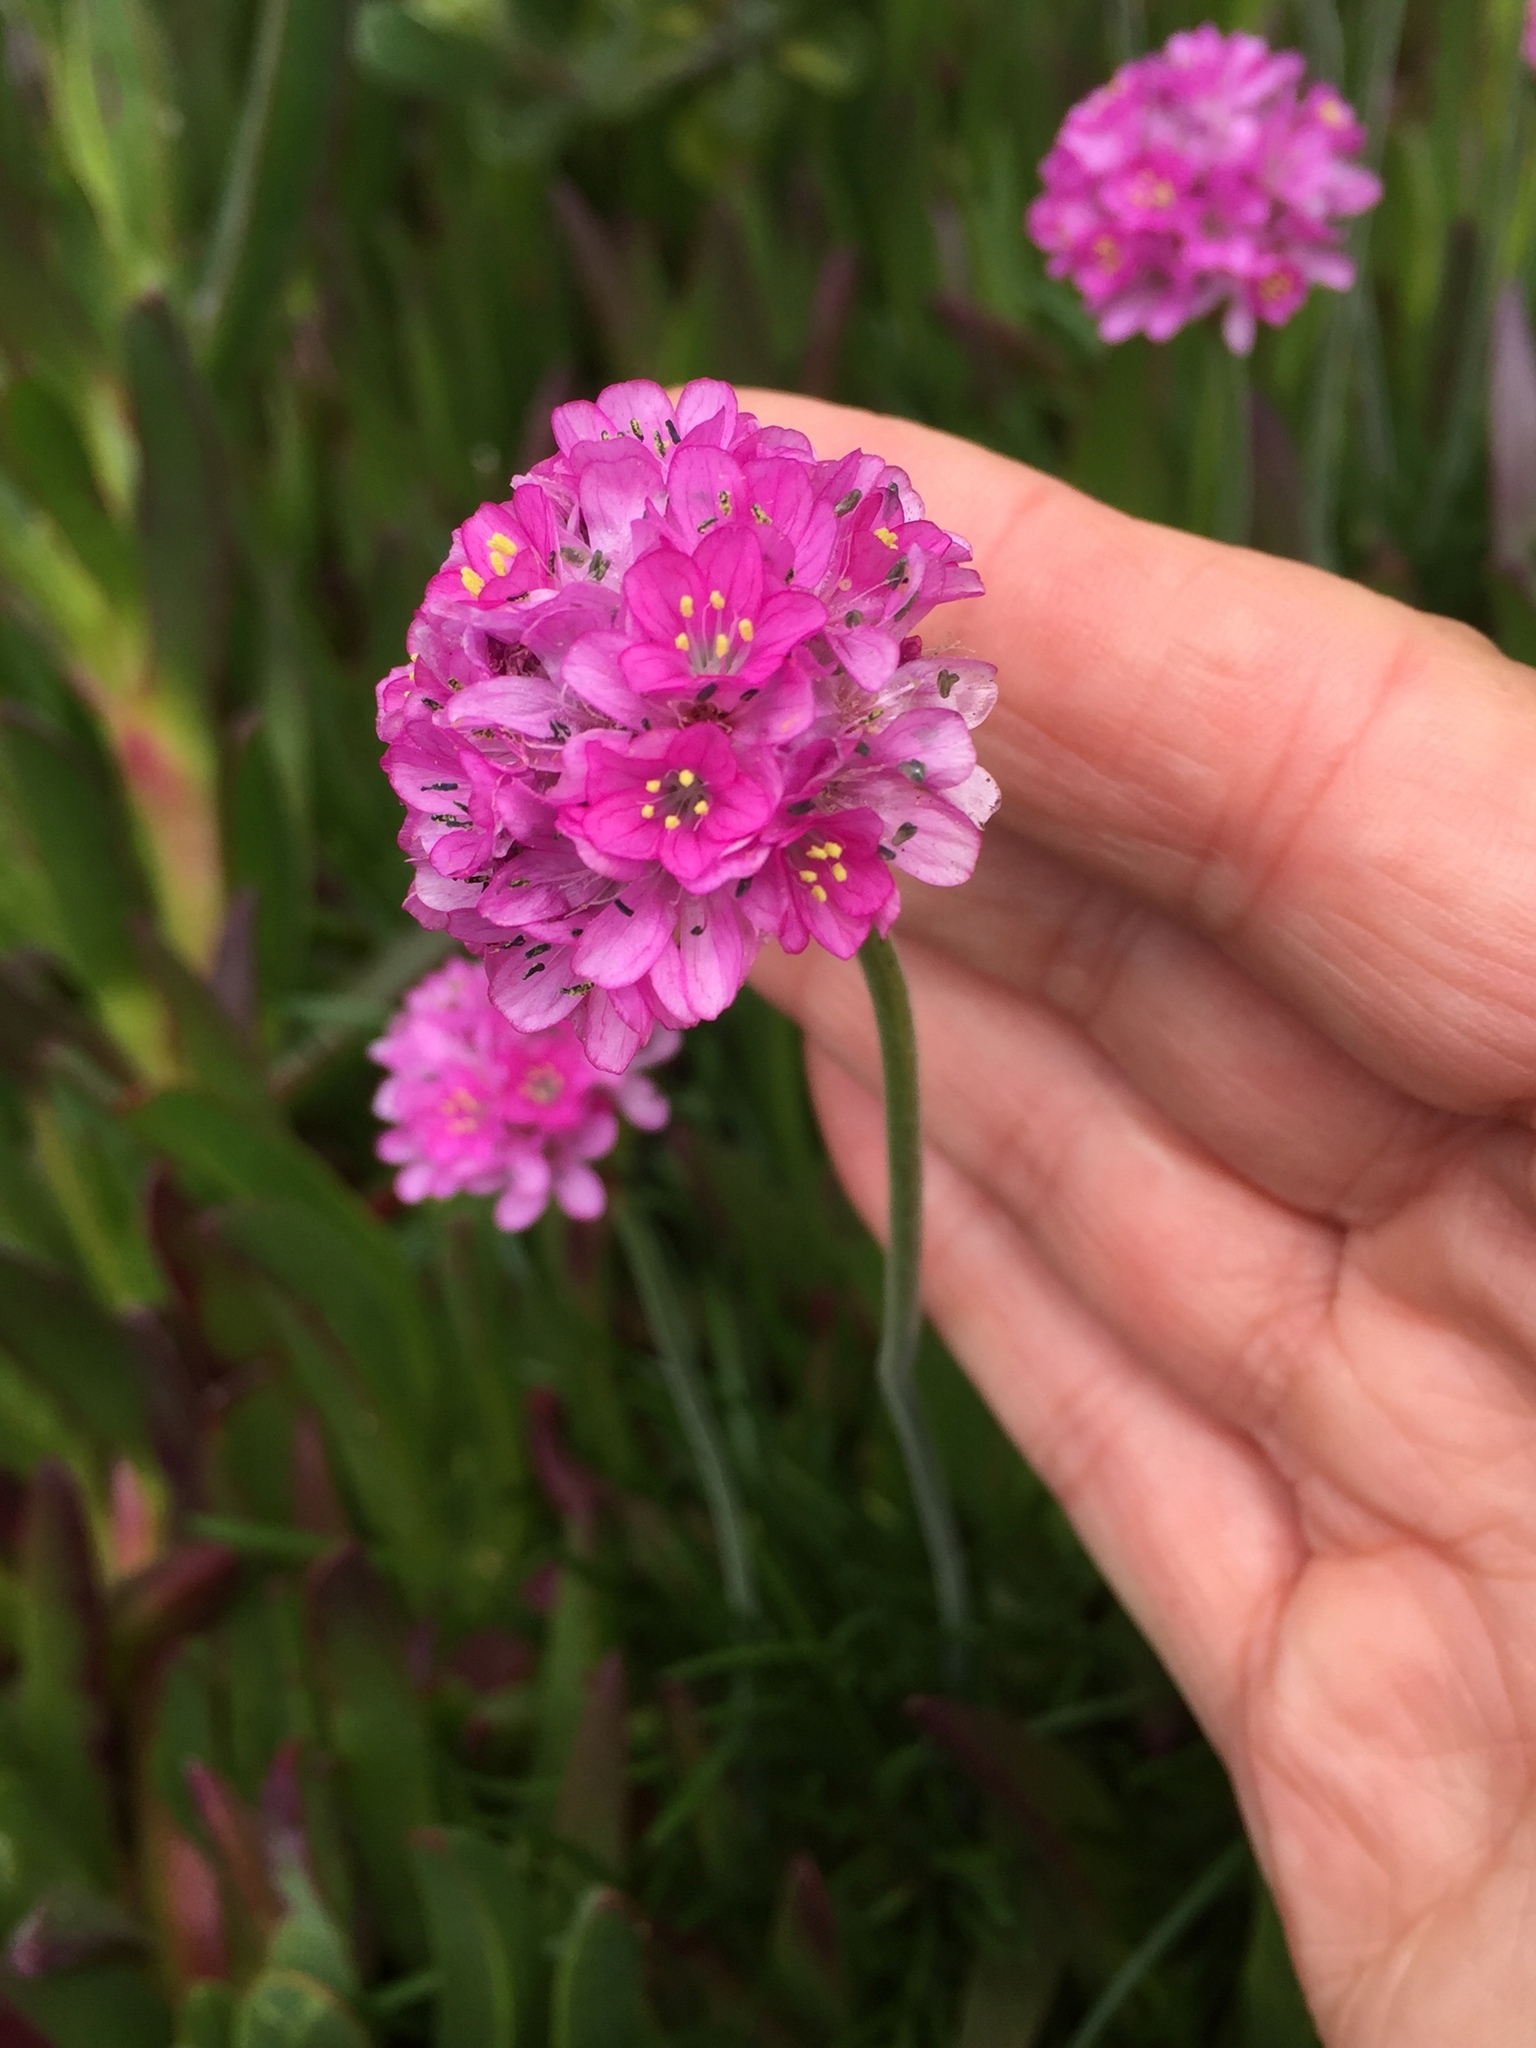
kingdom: Plantae
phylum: Tracheophyta
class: Magnoliopsida
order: Caryophyllales
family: Plumbaginaceae
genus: Armeria
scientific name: Armeria maritima
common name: Thrift
